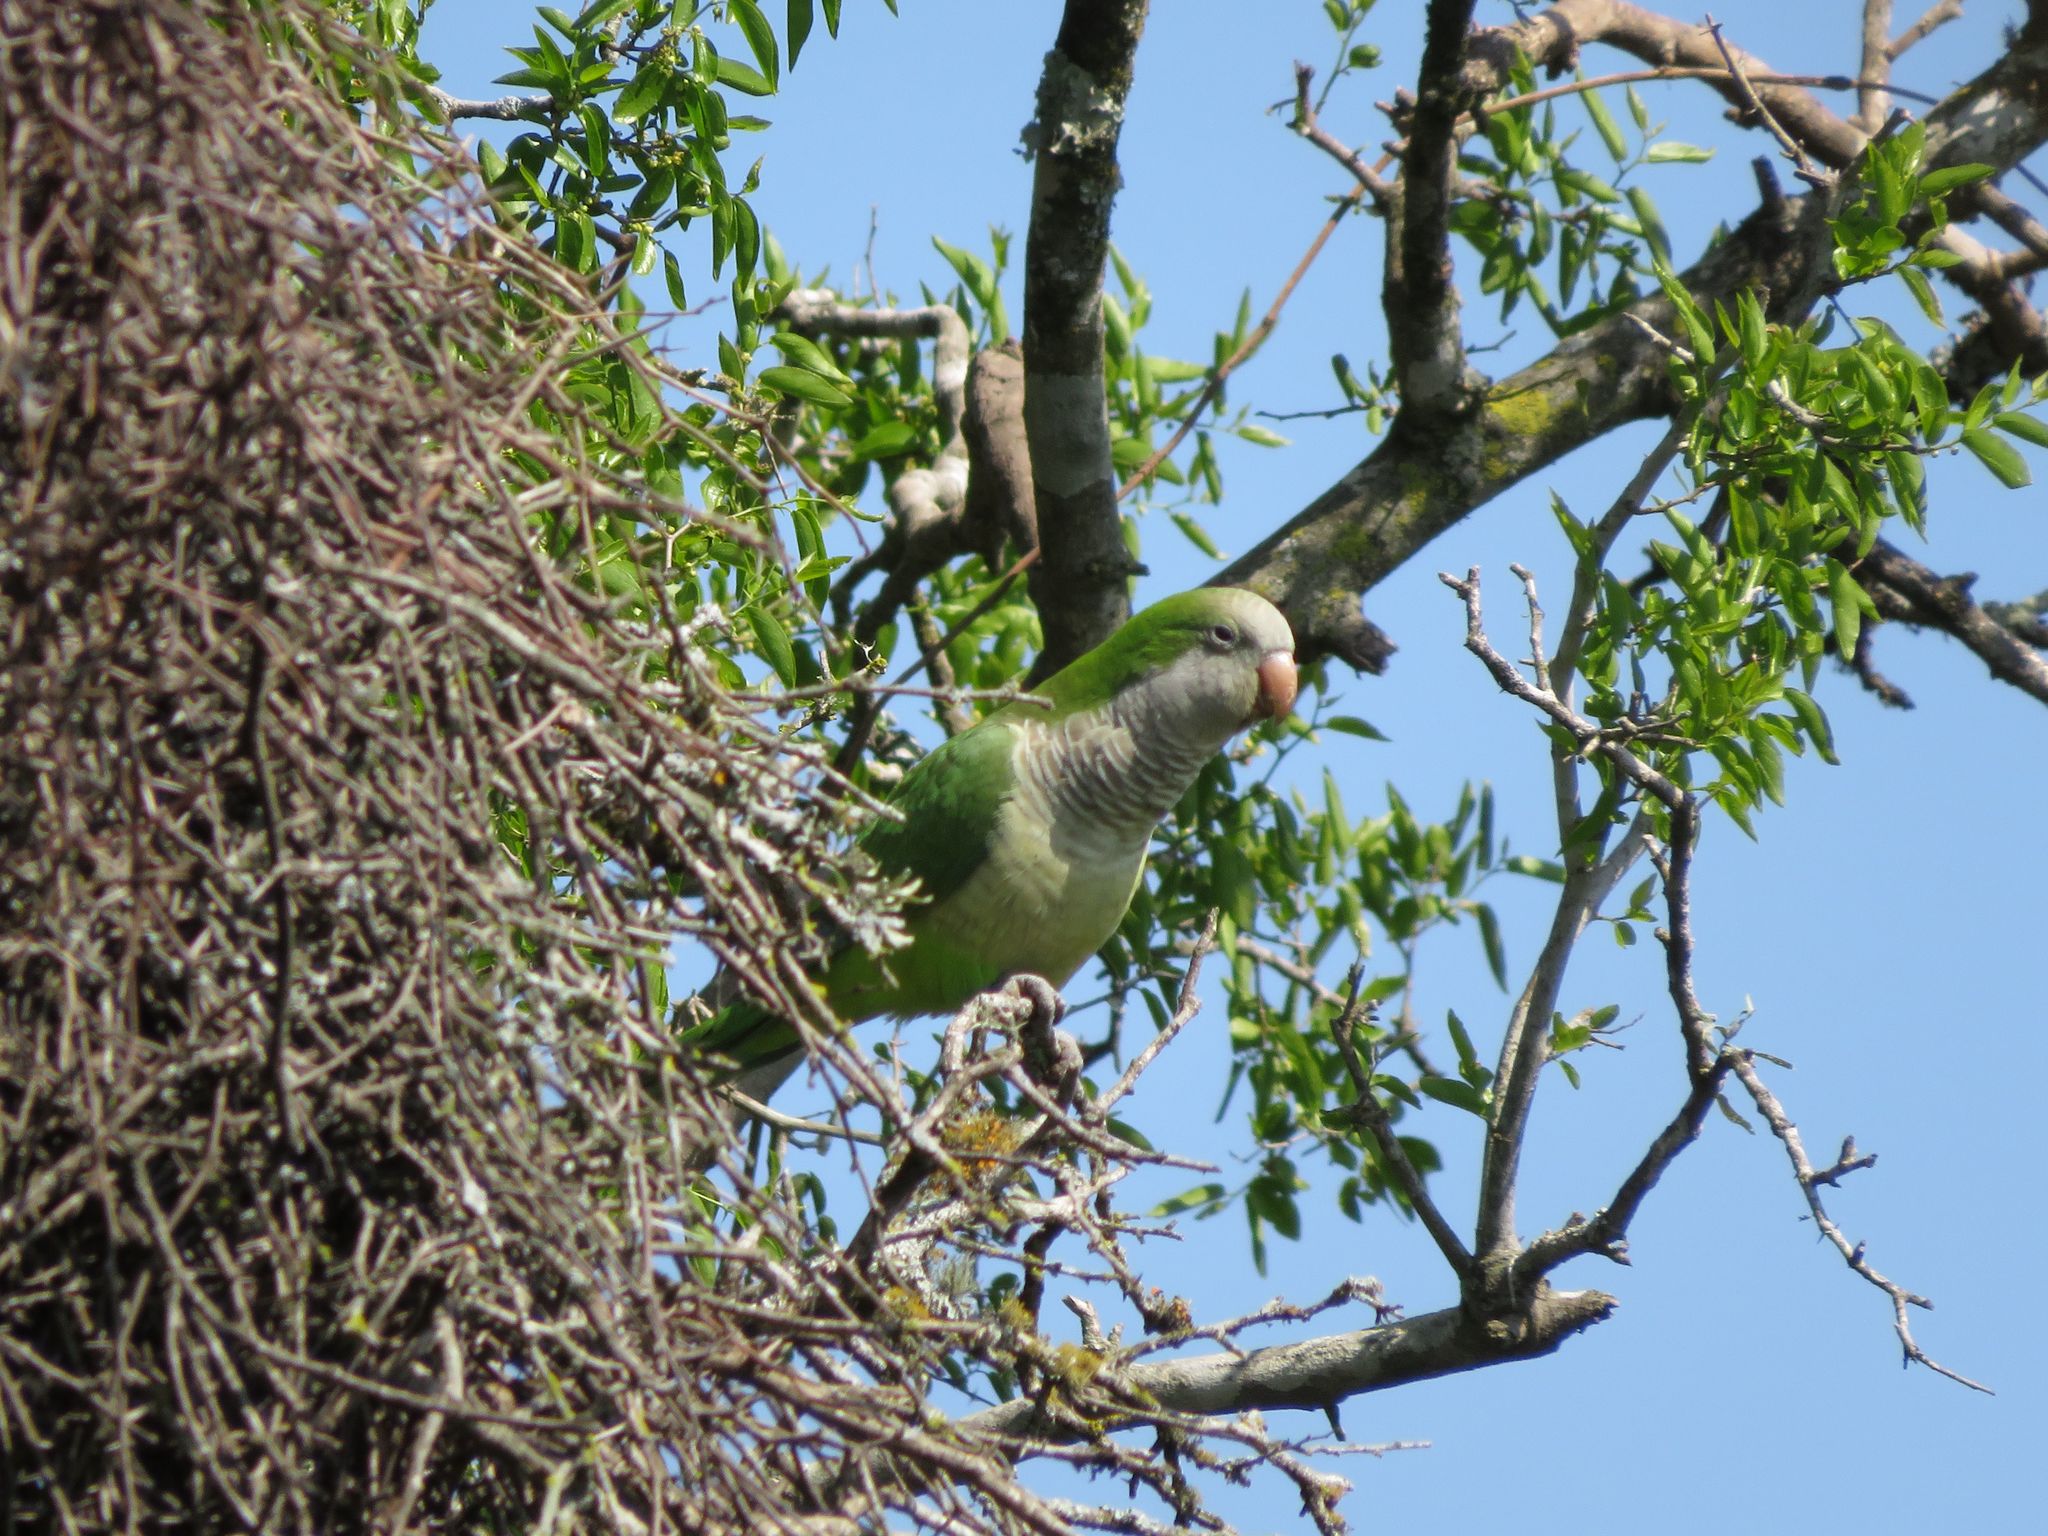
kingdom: Animalia
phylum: Chordata
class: Aves
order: Psittaciformes
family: Psittacidae
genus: Myiopsitta
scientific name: Myiopsitta monachus
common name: Monk parakeet
